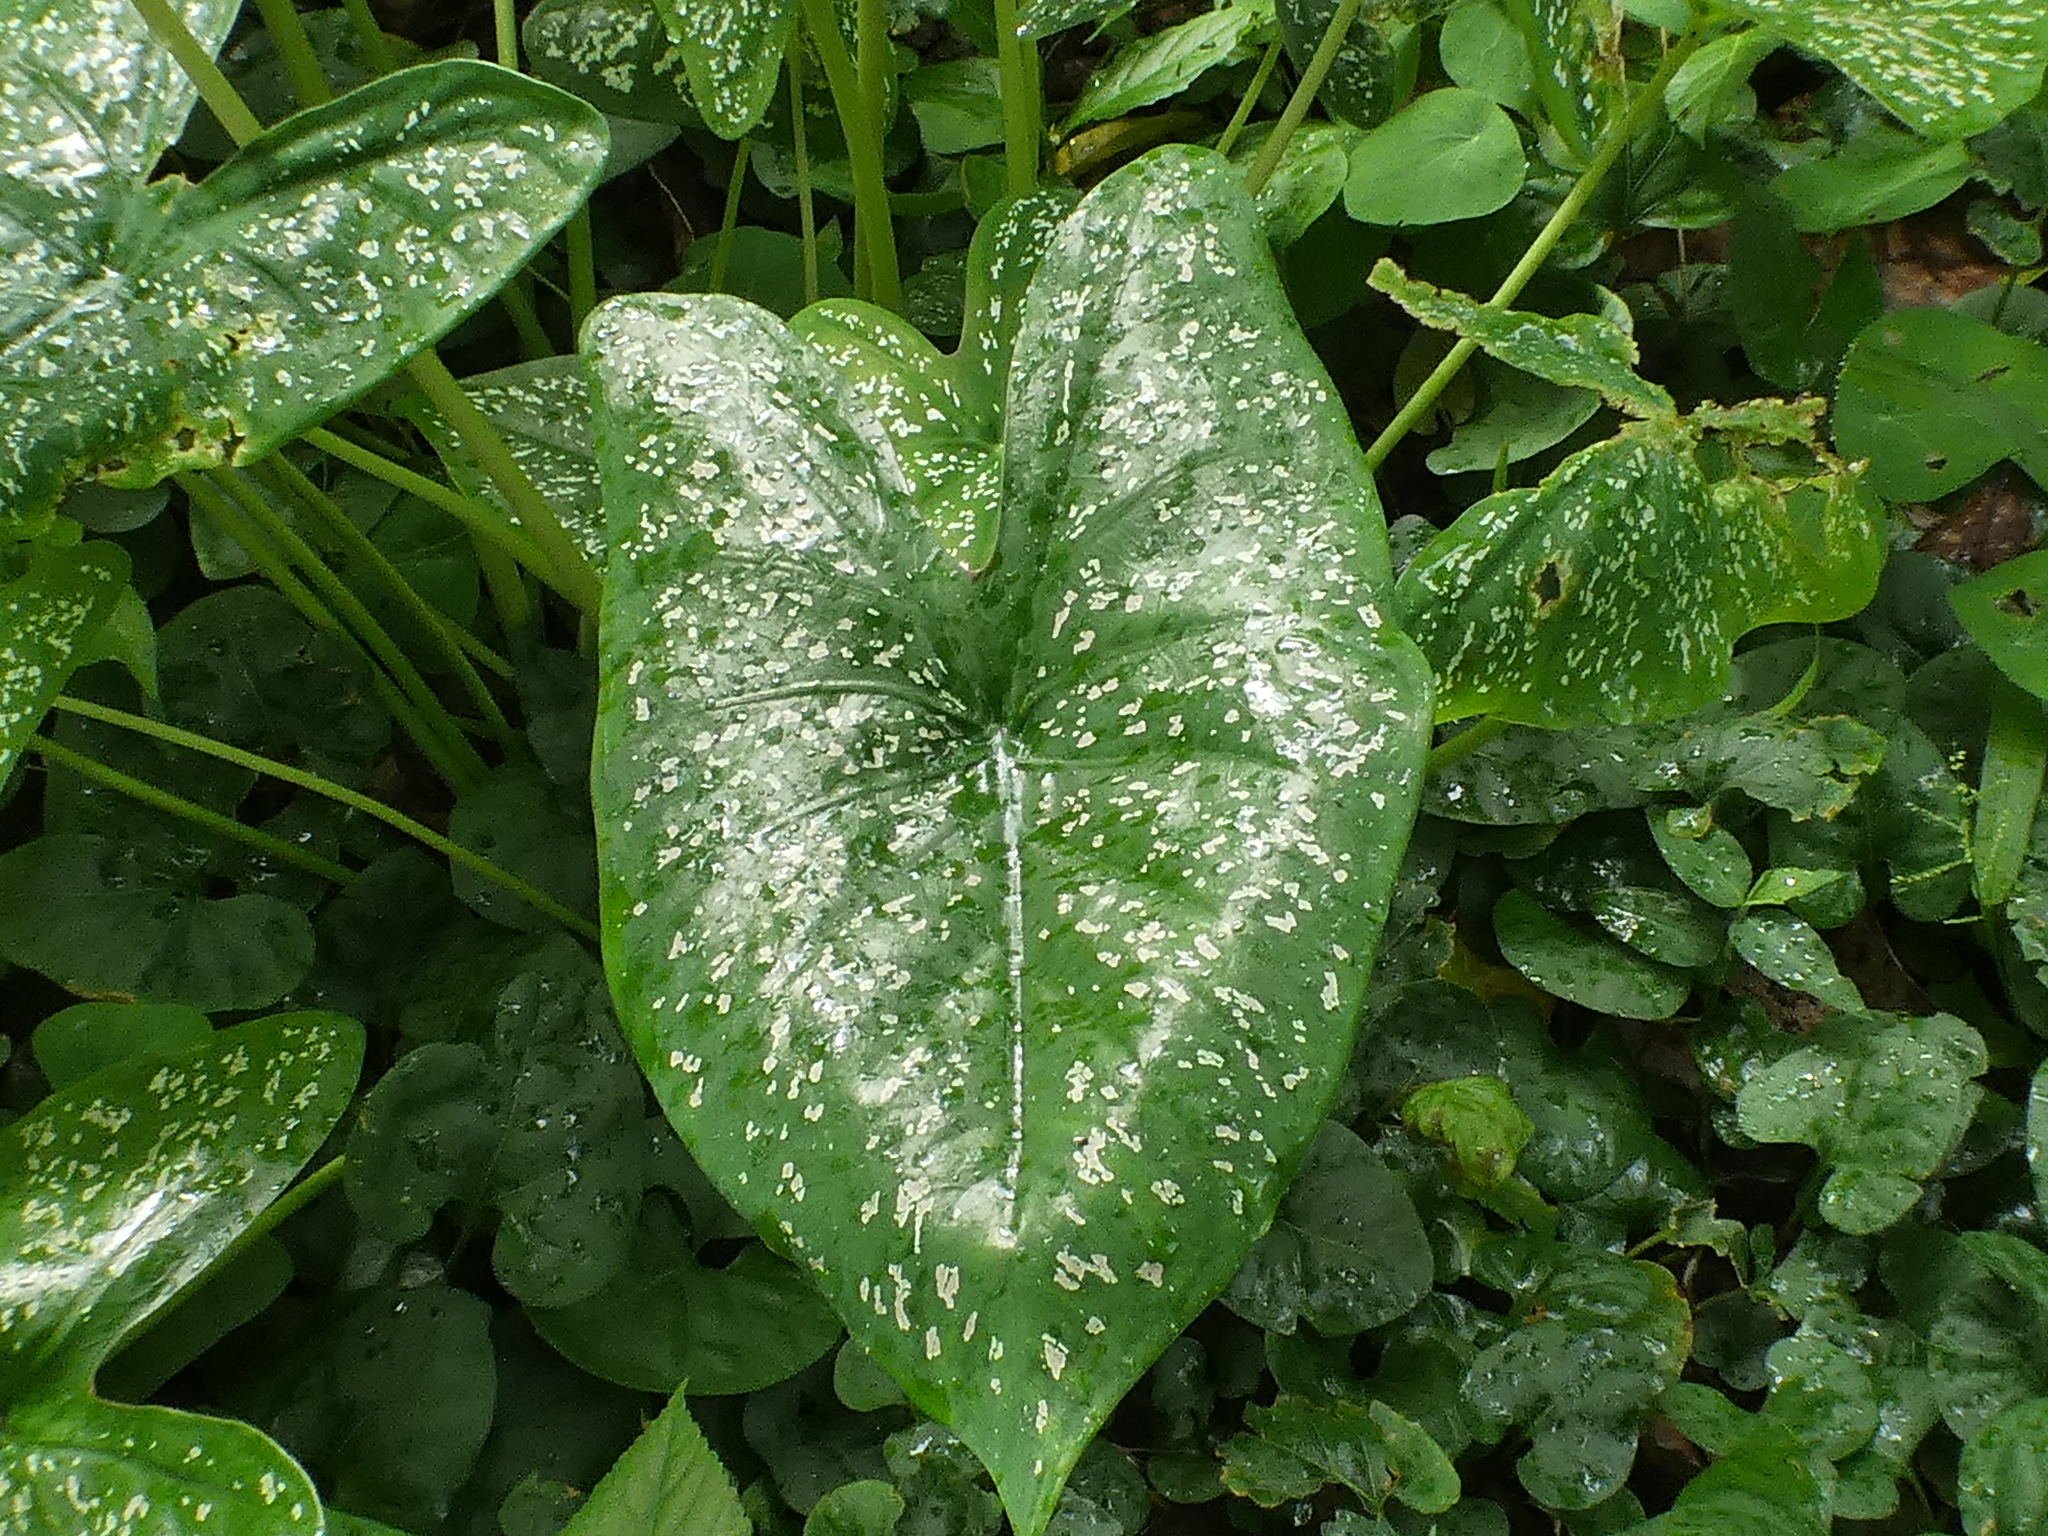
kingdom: Plantae
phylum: Tracheophyta
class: Liliopsida
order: Alismatales
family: Araceae
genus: Caladium
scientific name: Caladium bicolor
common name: Artist's pallet
